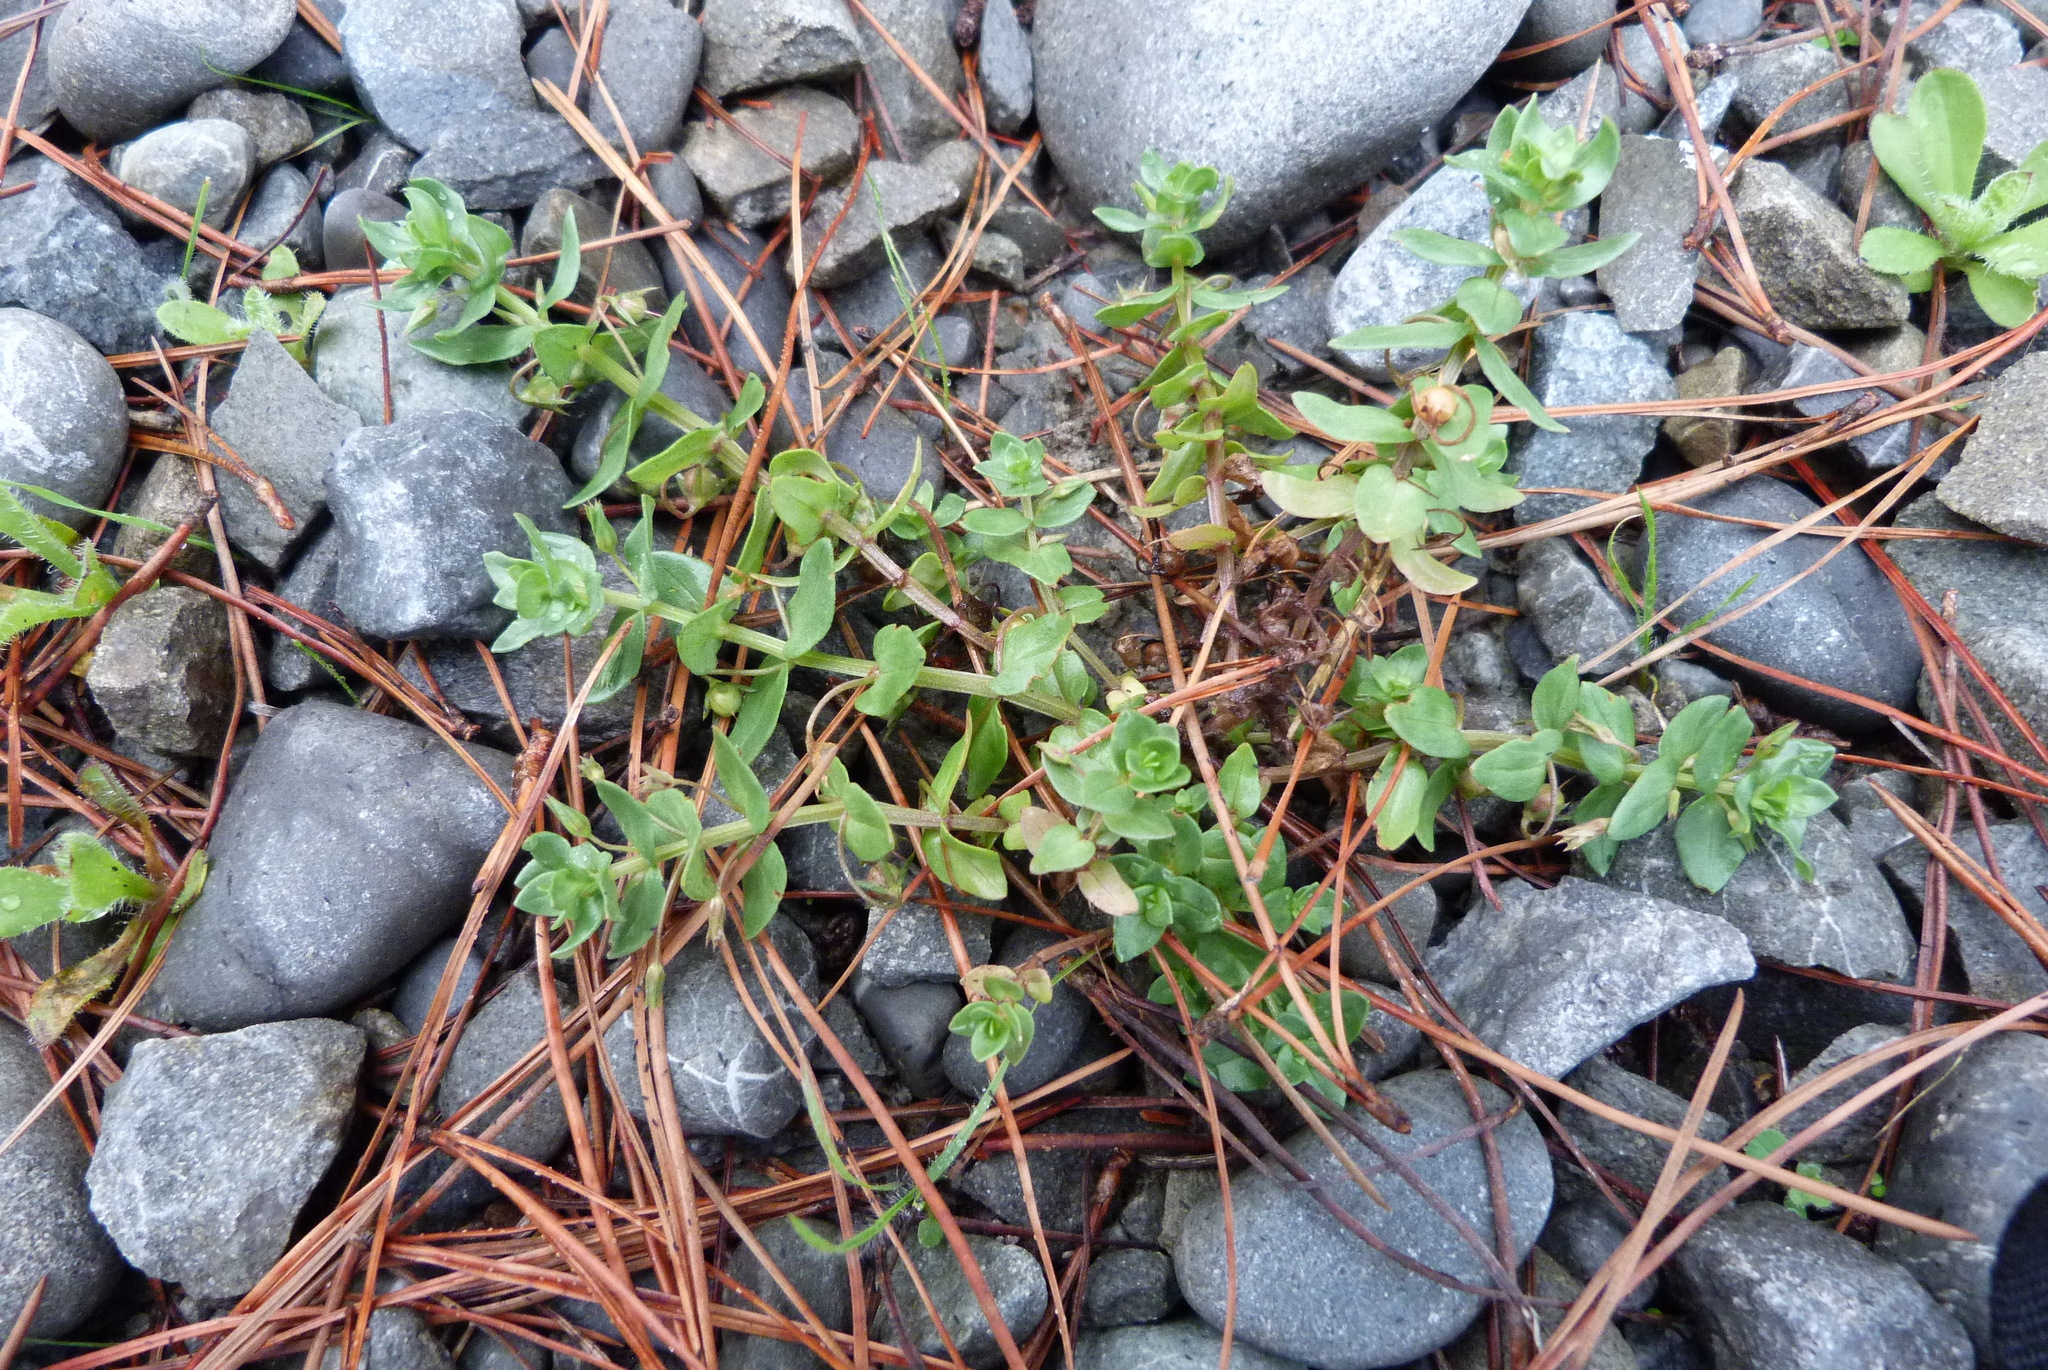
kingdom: Plantae
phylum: Tracheophyta
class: Magnoliopsida
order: Ericales
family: Primulaceae
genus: Lysimachia
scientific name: Lysimachia arvensis
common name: Scarlet pimpernel
